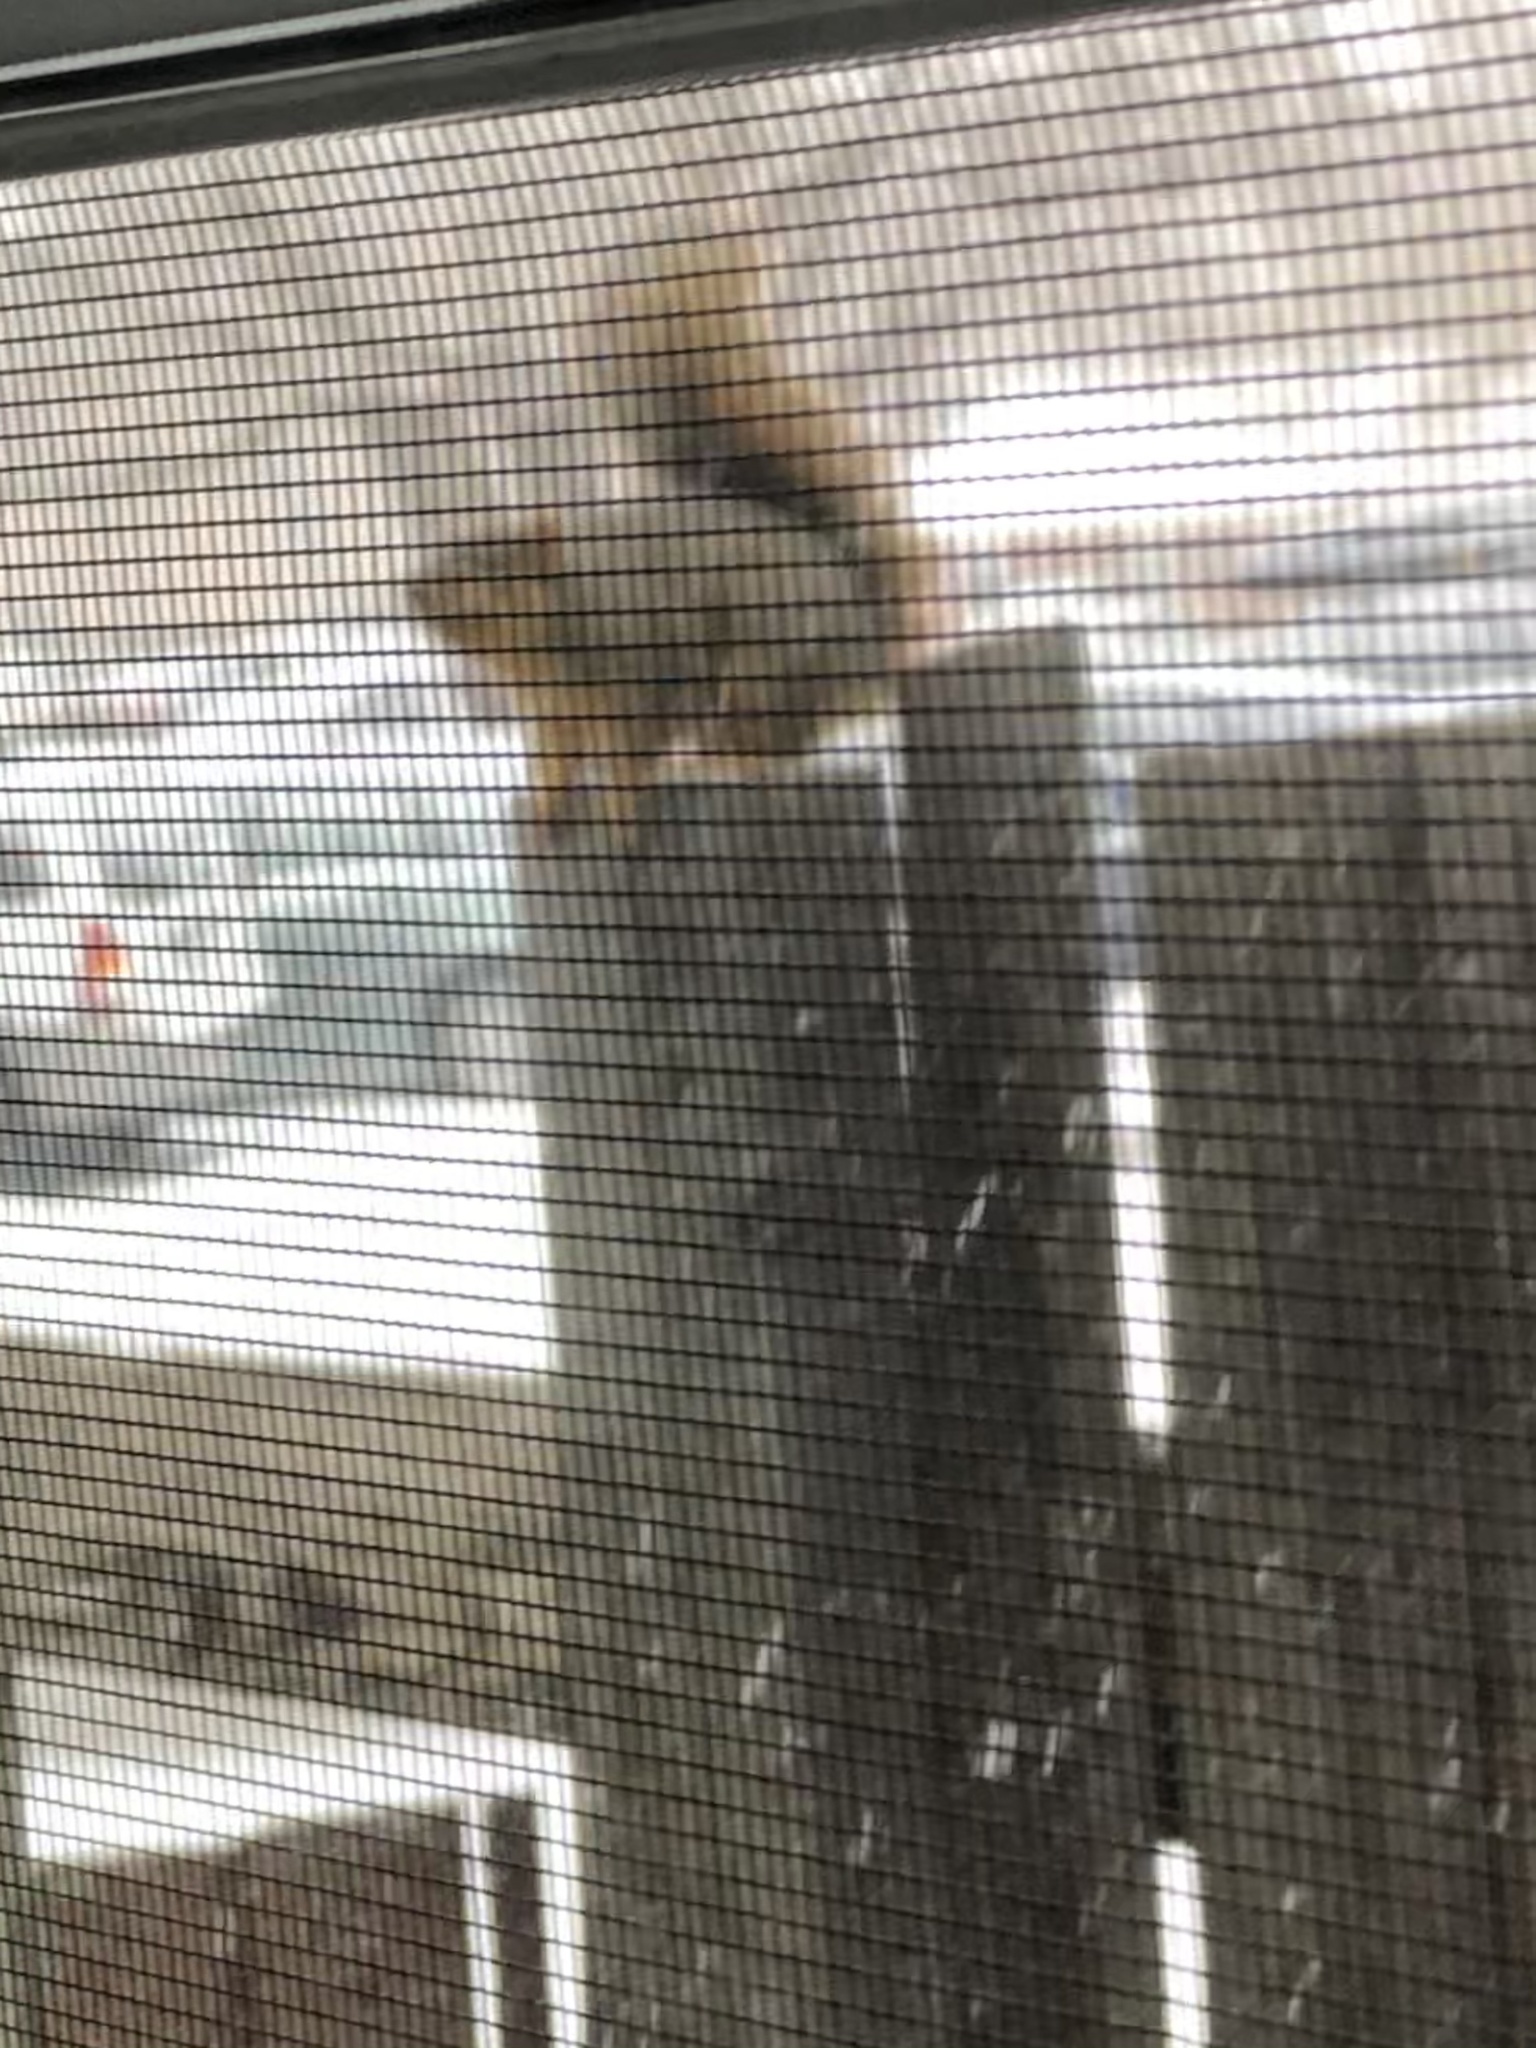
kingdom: Animalia
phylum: Chordata
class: Mammalia
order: Rodentia
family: Sciuridae
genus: Sciurus
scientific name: Sciurus niger
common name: Fox squirrel
